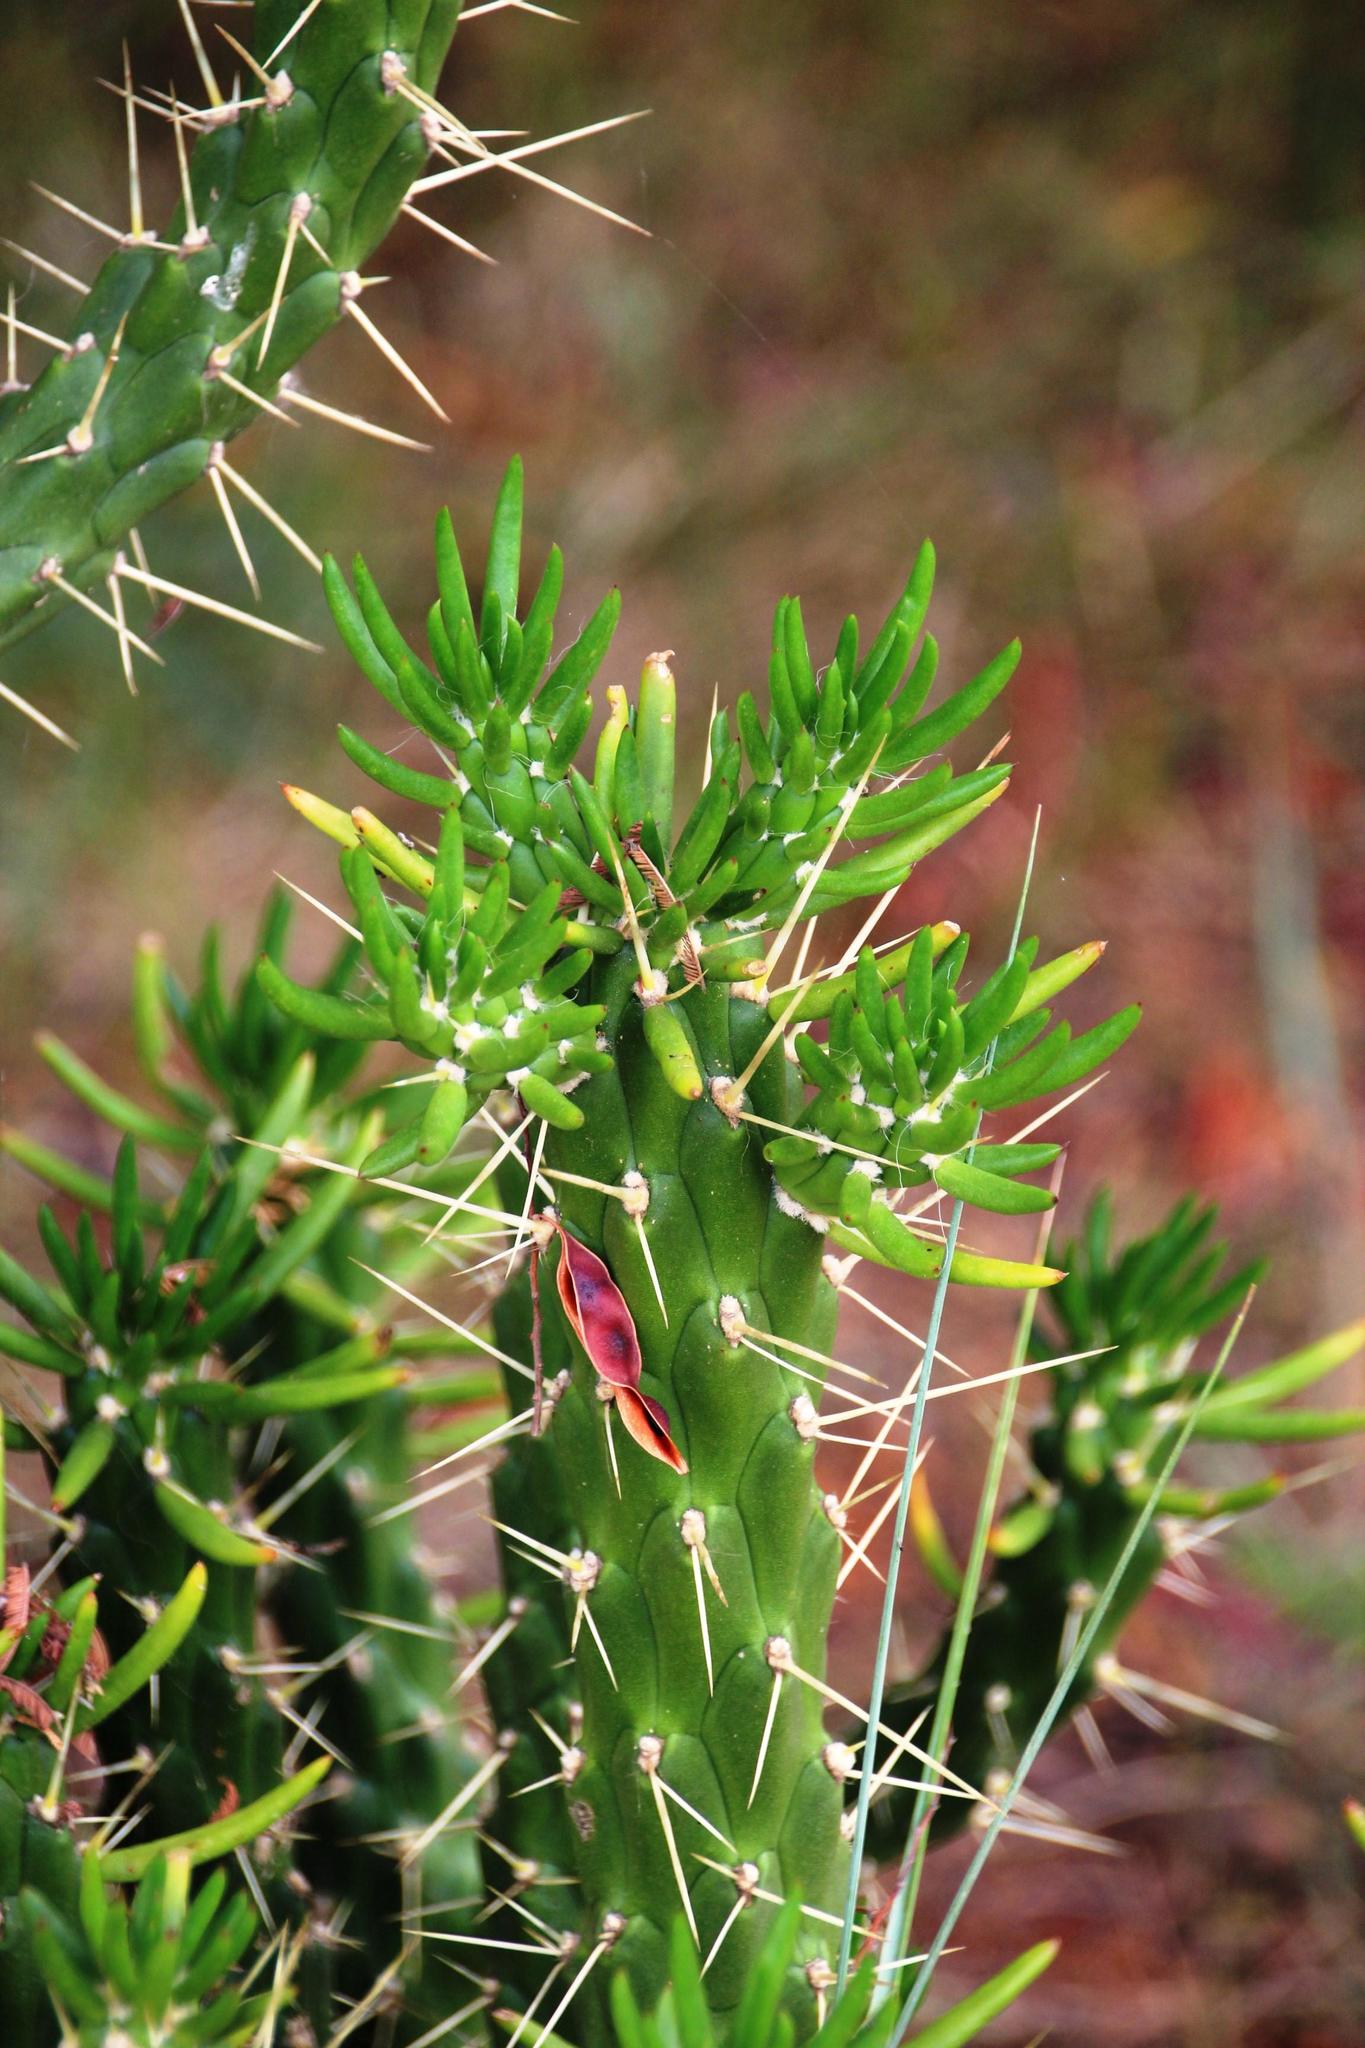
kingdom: Plantae
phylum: Tracheophyta
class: Magnoliopsida
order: Caryophyllales
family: Cactaceae
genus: Austrocylindropuntia
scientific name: Austrocylindropuntia subulata
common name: Eve's needle cactus
